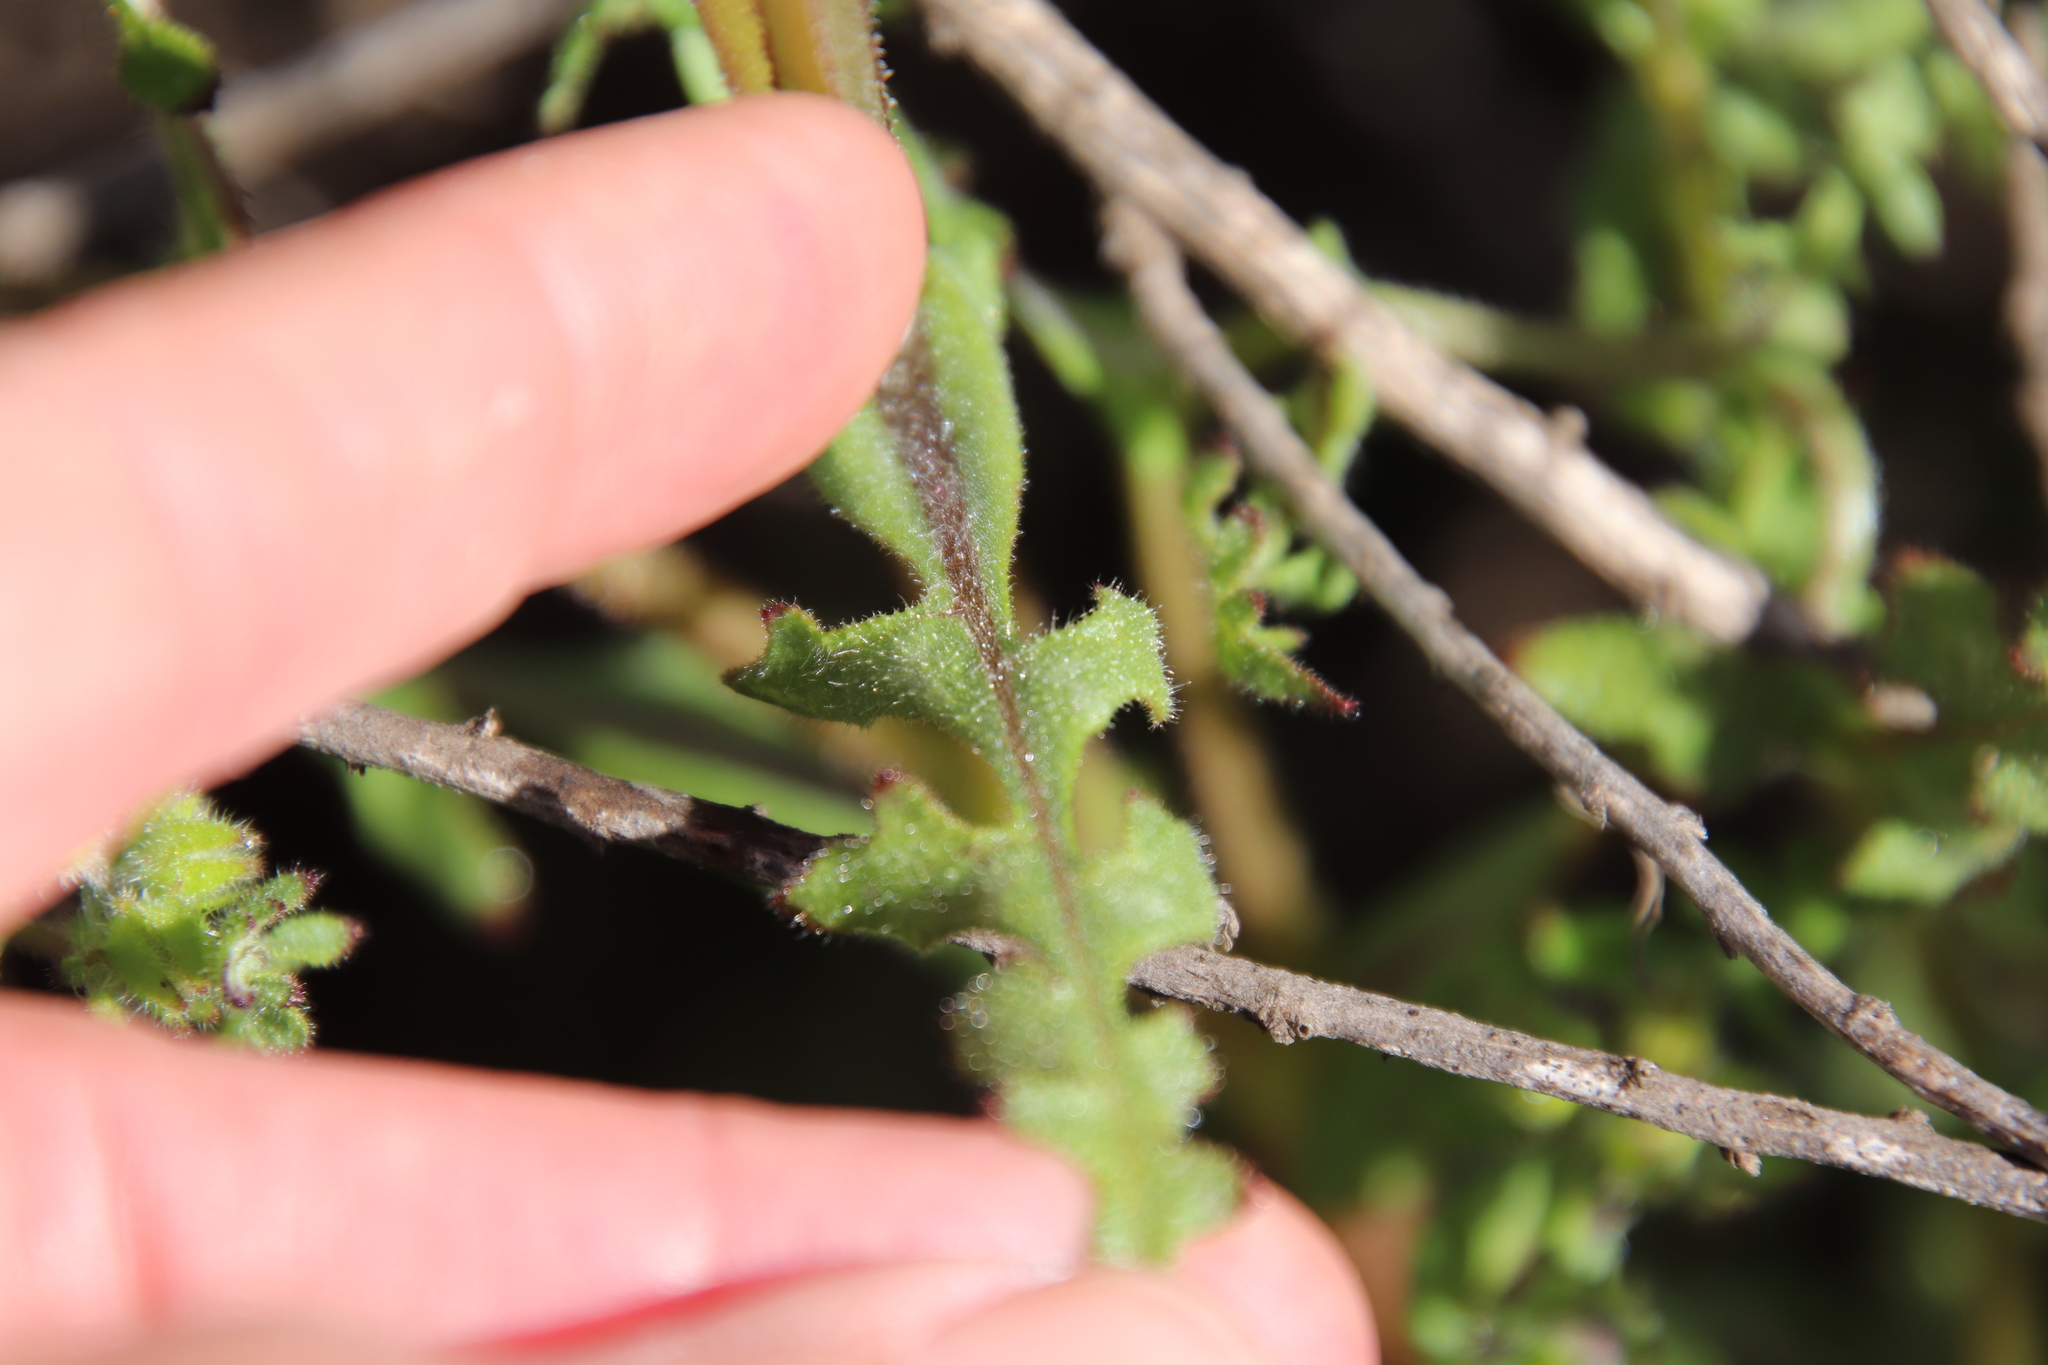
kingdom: Plantae
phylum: Tracheophyta
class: Magnoliopsida
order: Boraginales
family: Hydrophyllaceae
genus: Pholistoma
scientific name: Pholistoma auritum
